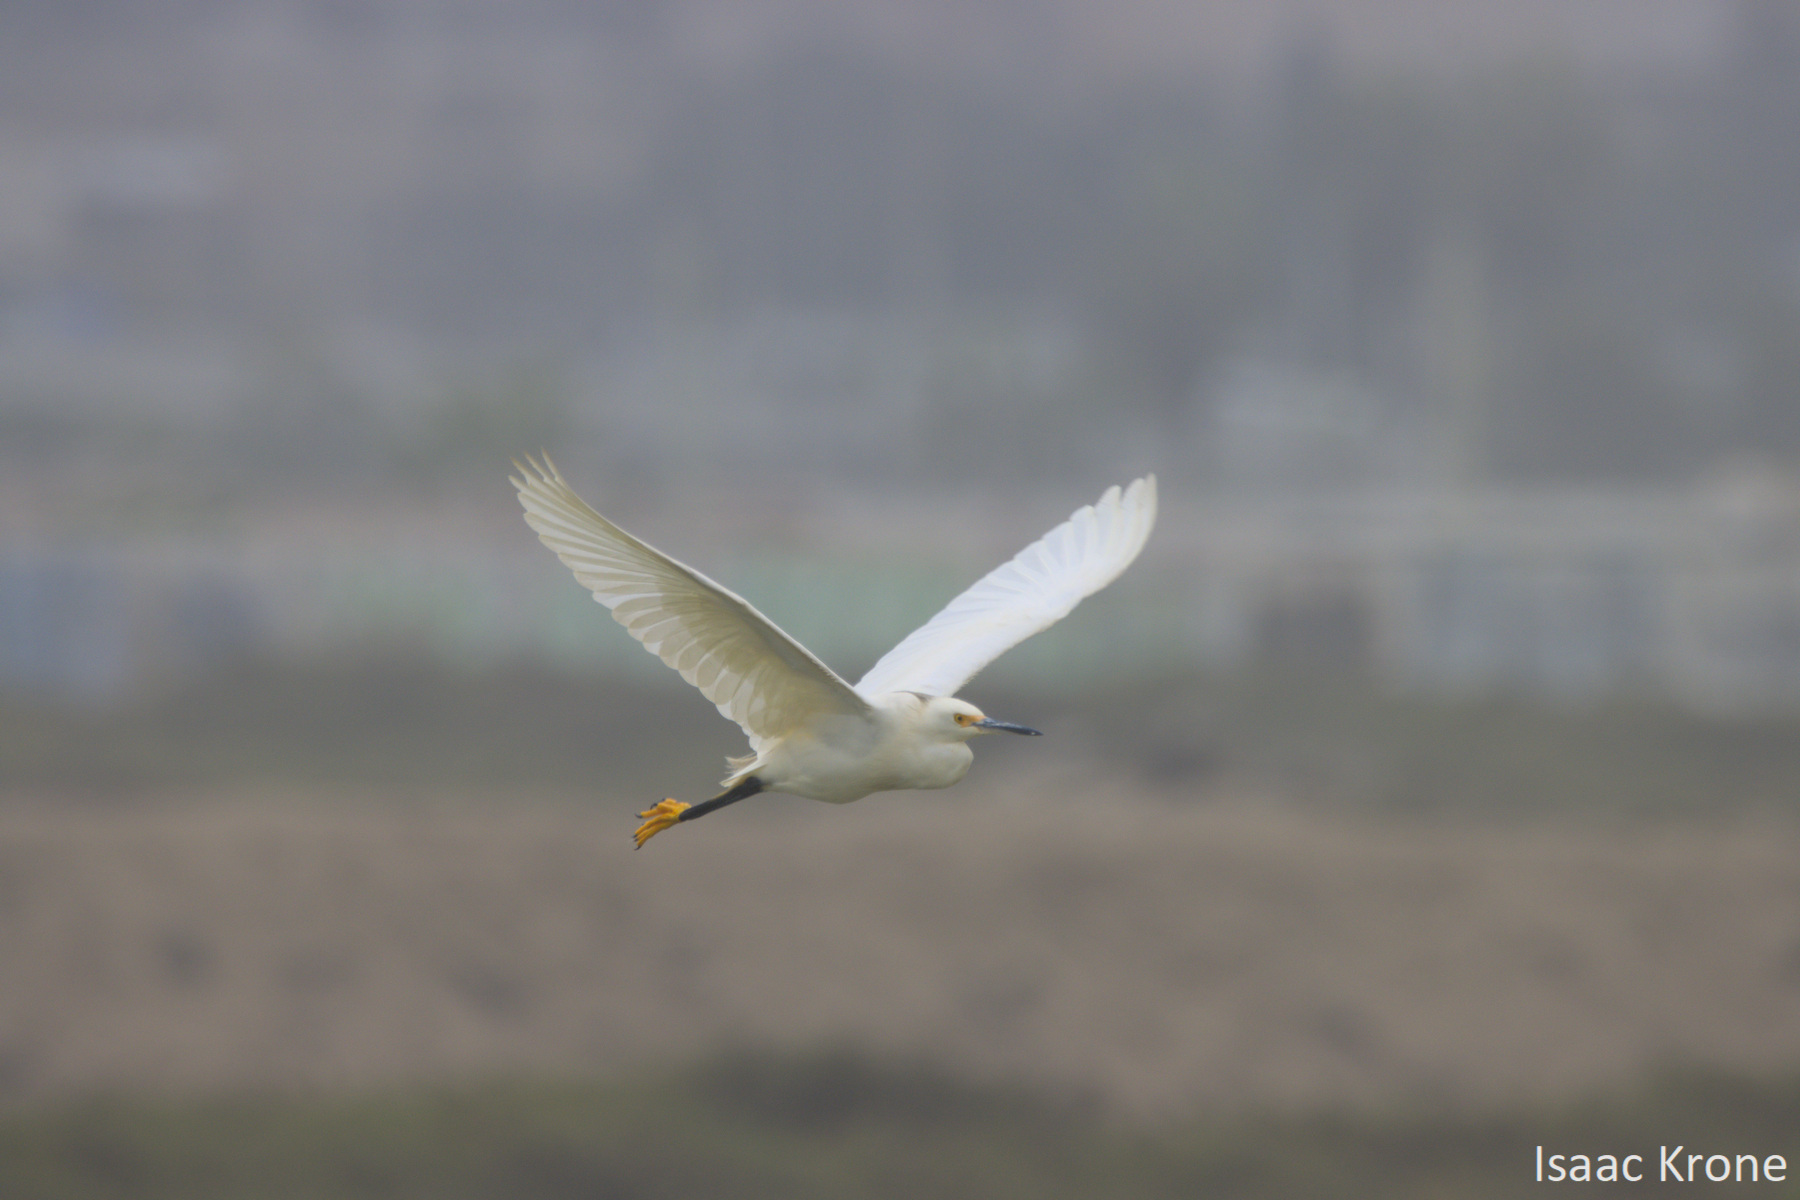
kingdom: Animalia
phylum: Chordata
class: Aves
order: Pelecaniformes
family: Ardeidae
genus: Egretta
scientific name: Egretta thula
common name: Snowy egret
